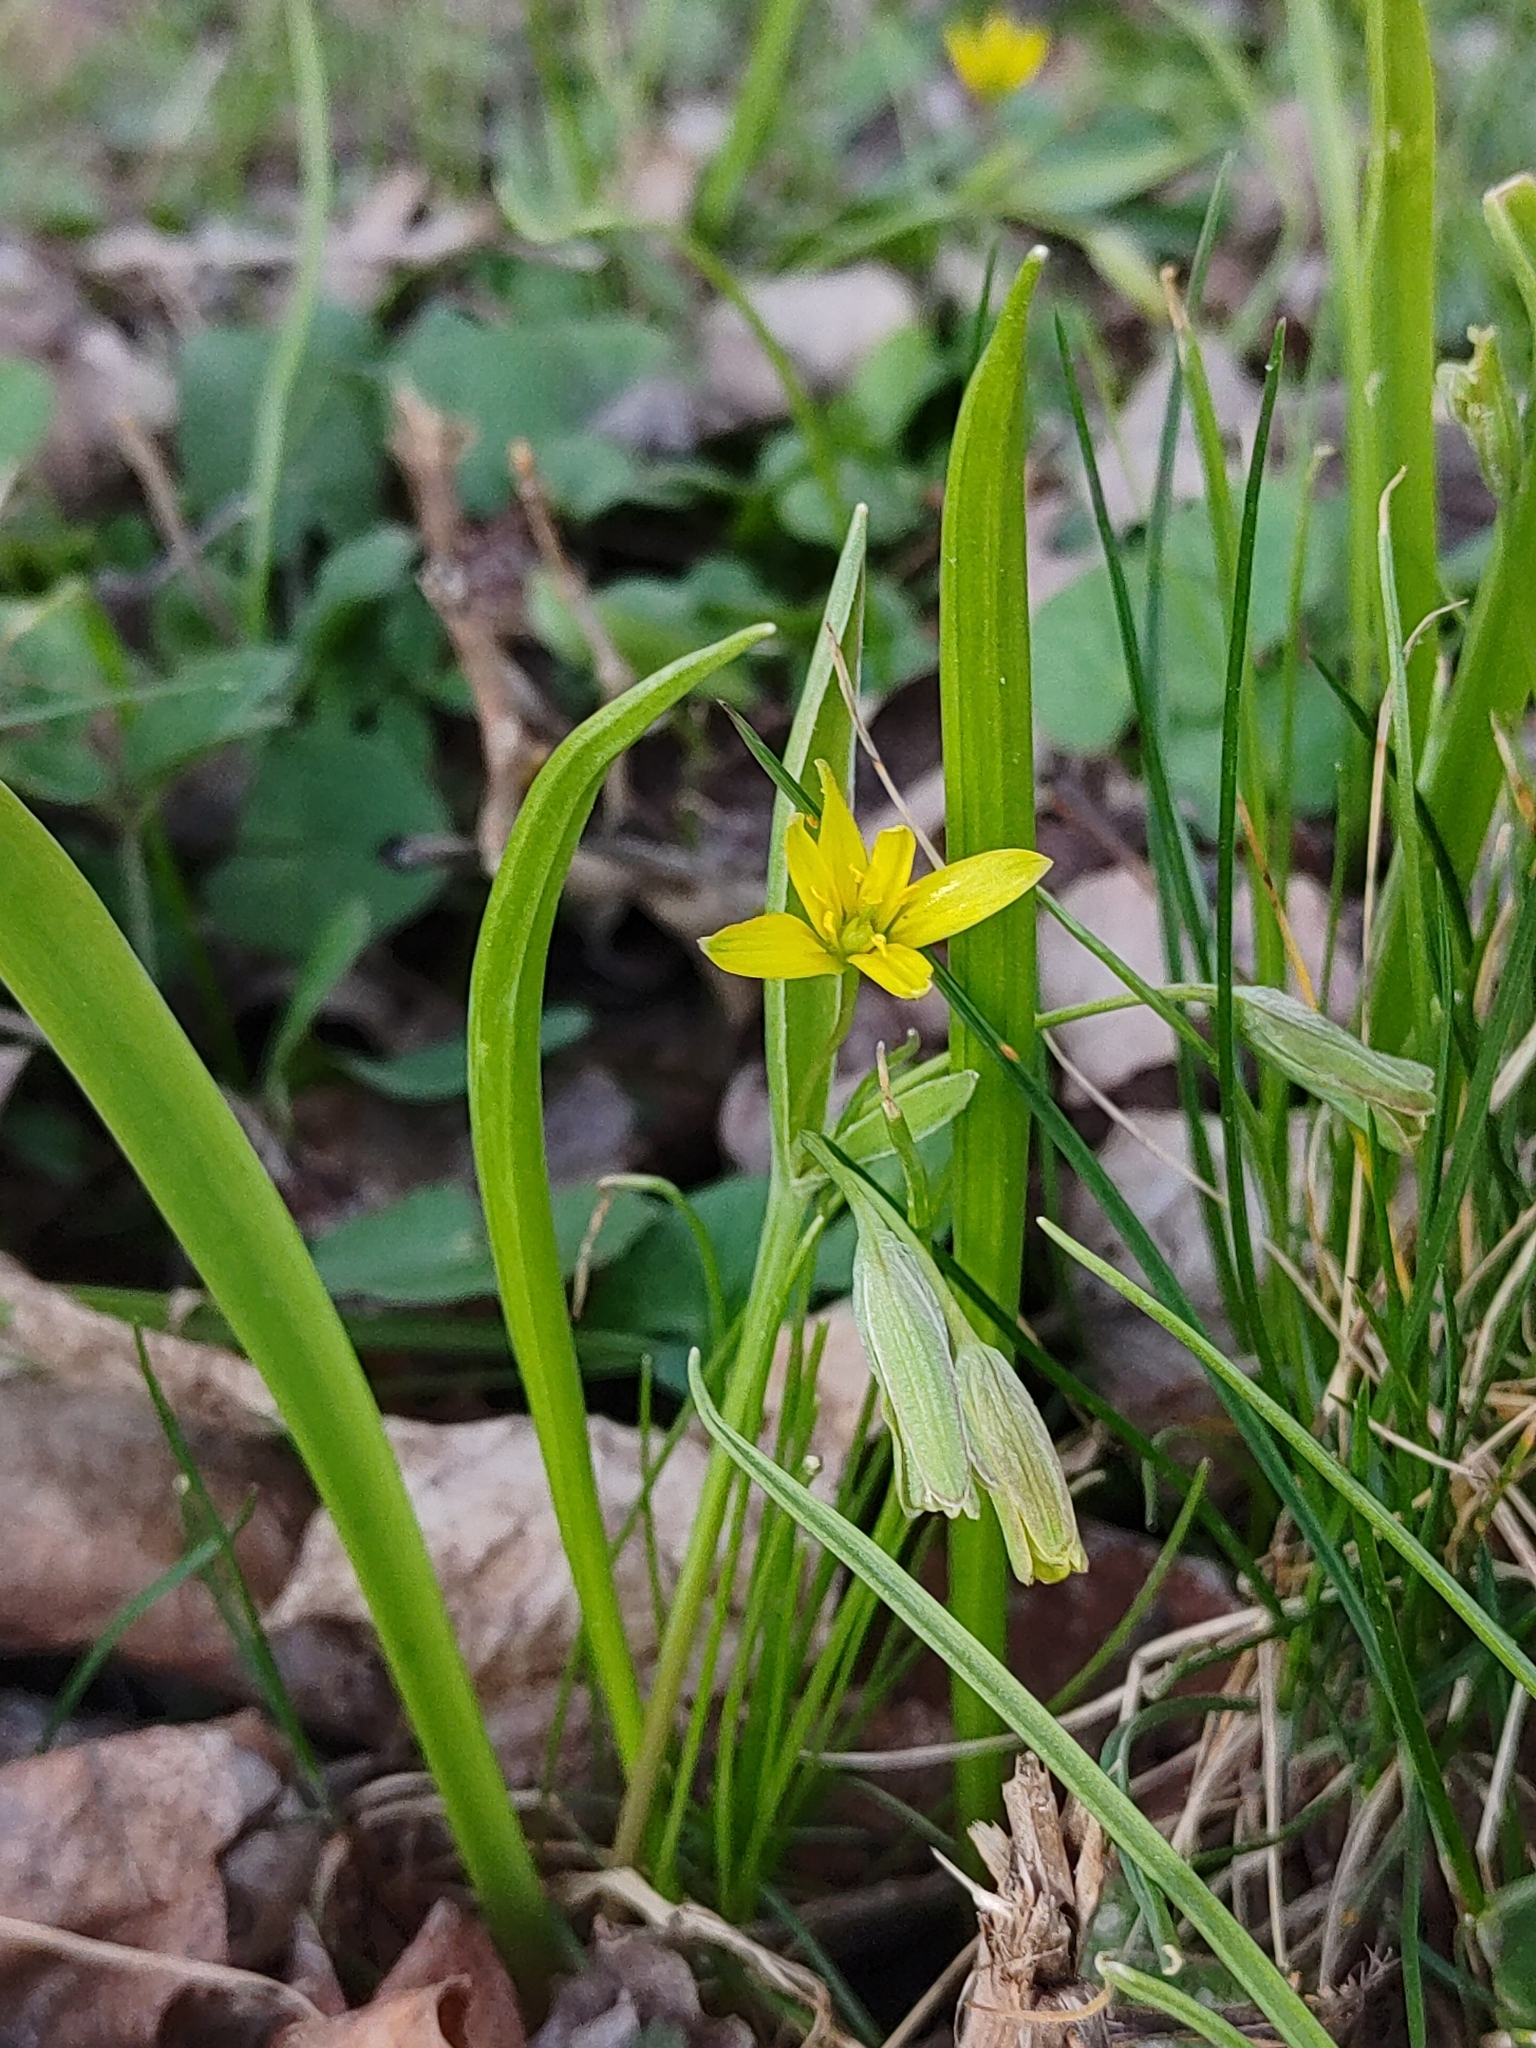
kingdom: Plantae
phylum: Tracheophyta
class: Liliopsida
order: Liliales
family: Liliaceae
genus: Gagea
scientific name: Gagea lutea
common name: Yellow star-of-bethlehem
